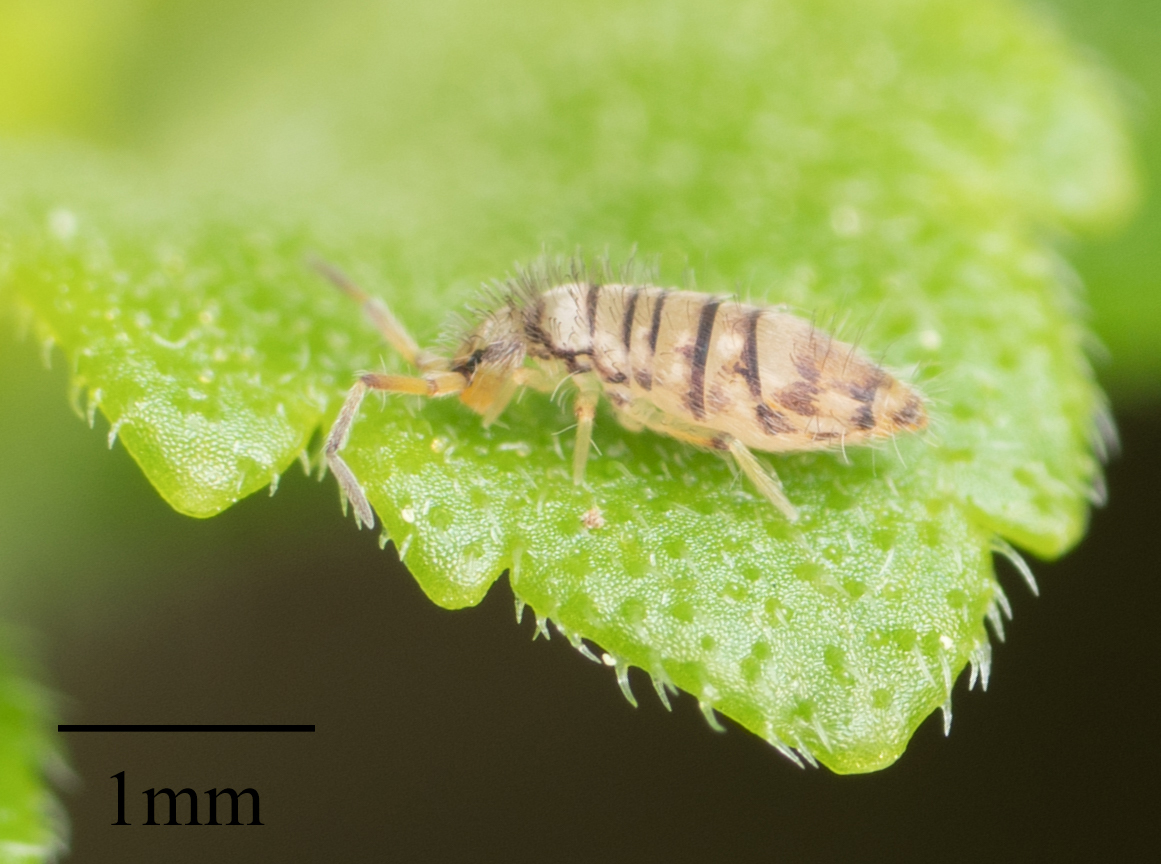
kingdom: Animalia
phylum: Arthropoda
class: Collembola
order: Entomobryomorpha
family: Entomobryidae
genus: Entomobrya
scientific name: Entomobrya atrocincta
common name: Springtail
